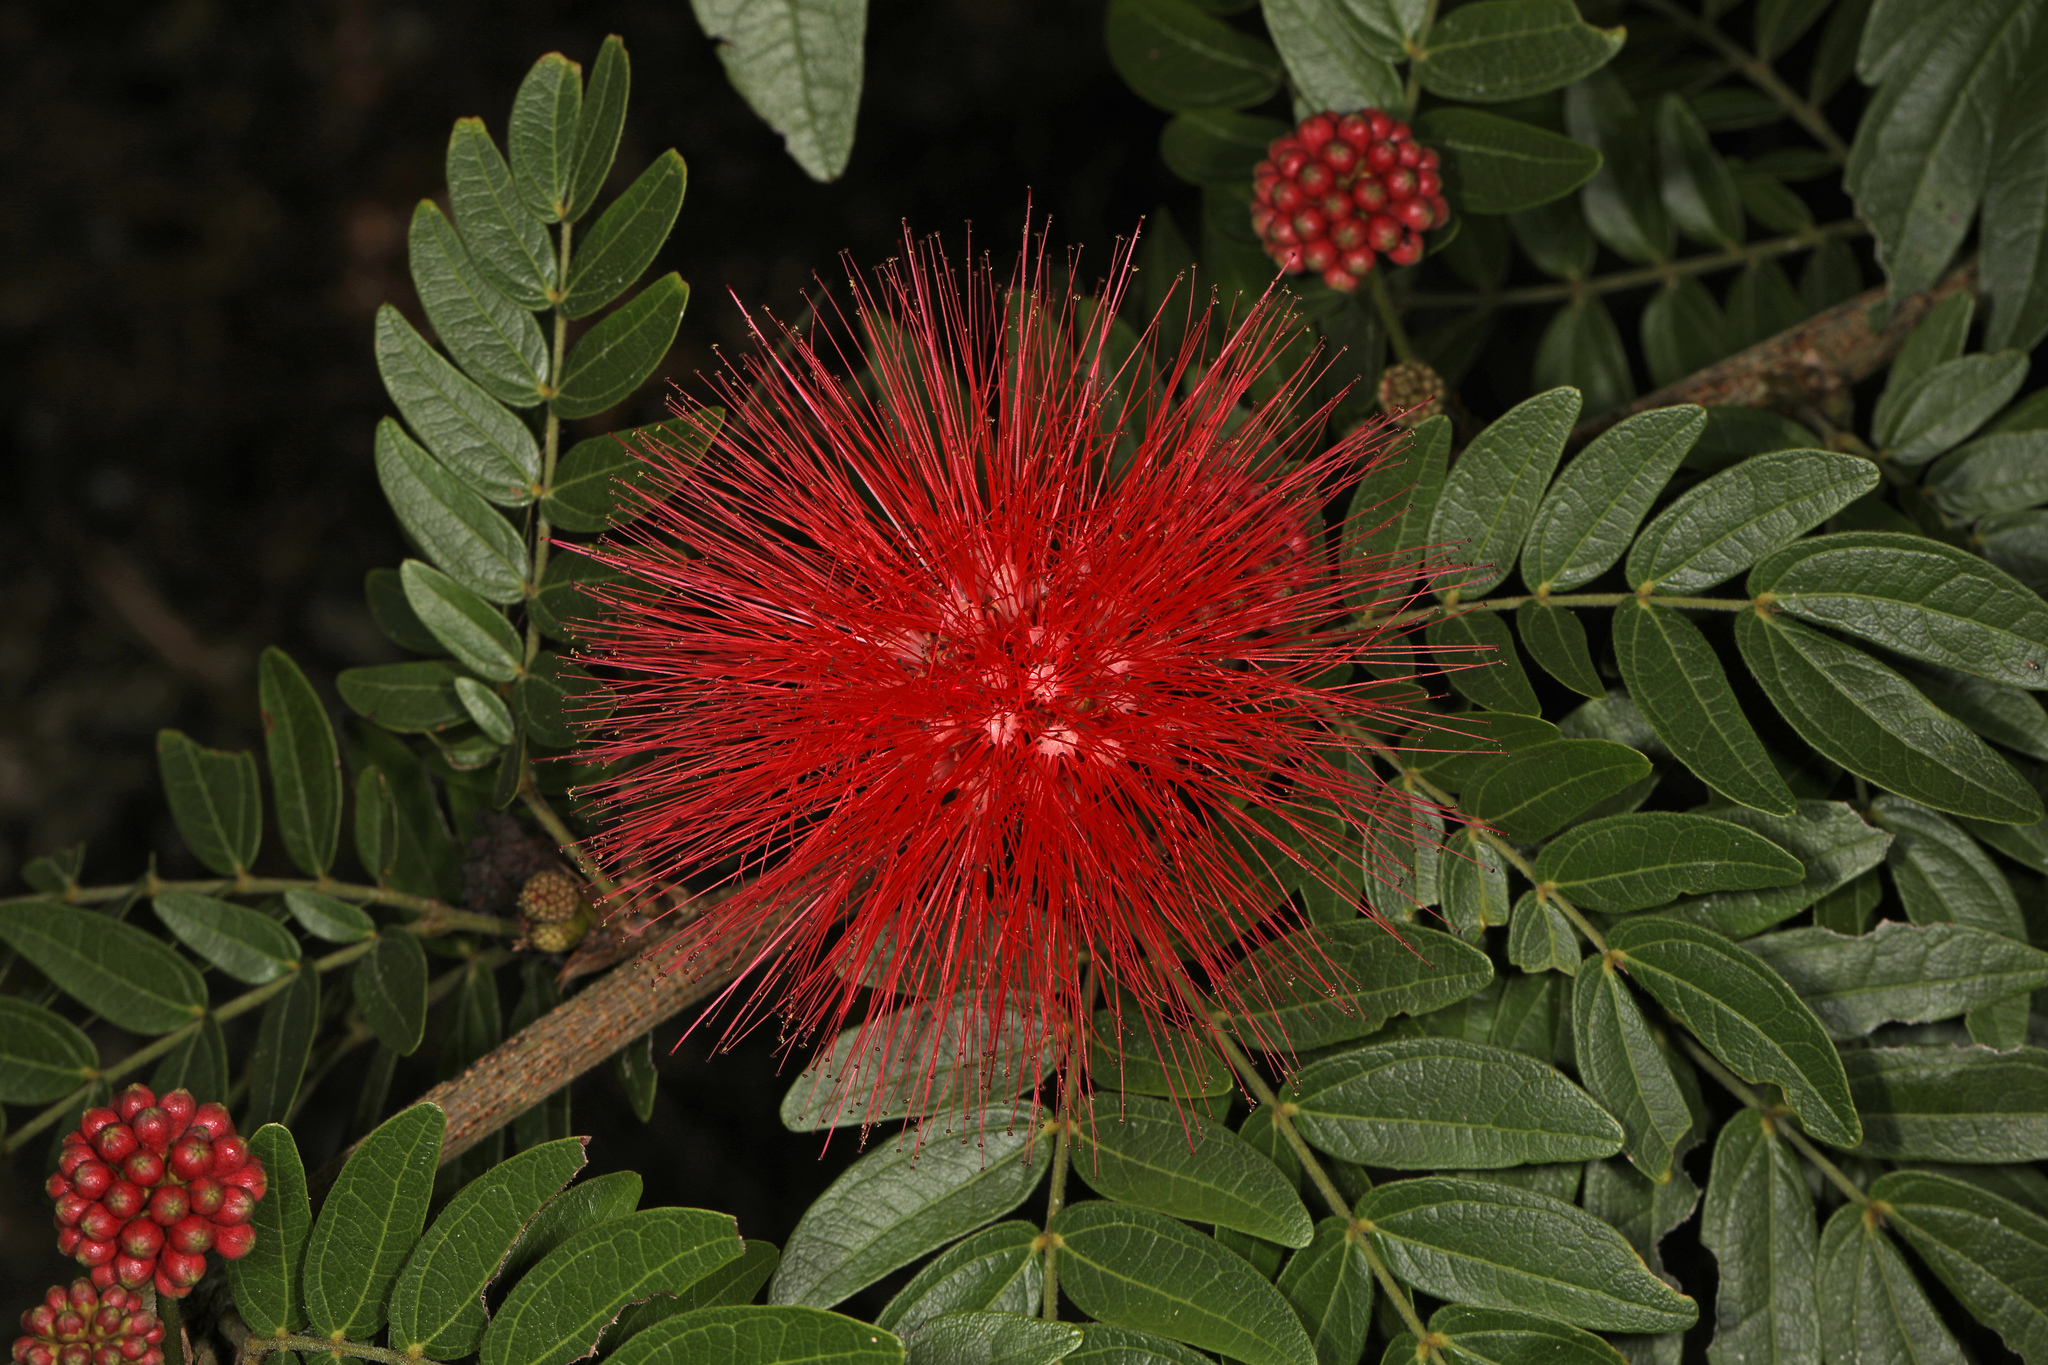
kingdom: Plantae
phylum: Tracheophyta
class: Magnoliopsida
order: Fabales
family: Fabaceae
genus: Calliandra
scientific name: Calliandra haematocephala
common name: Blood red tassel flower
